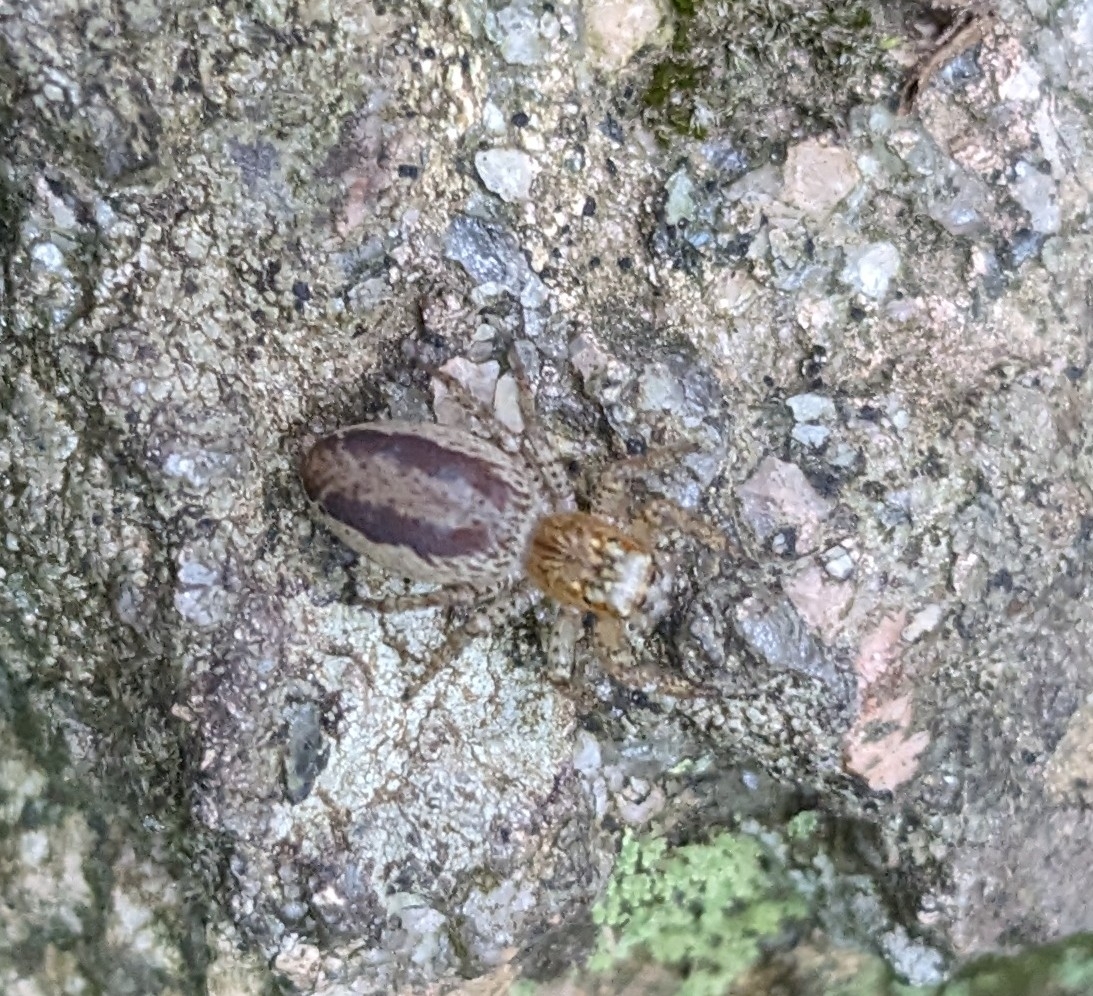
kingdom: Animalia
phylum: Arthropoda
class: Arachnida
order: Araneae
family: Salticidae
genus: Maevia
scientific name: Maevia inclemens
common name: Dimorphic jumper
